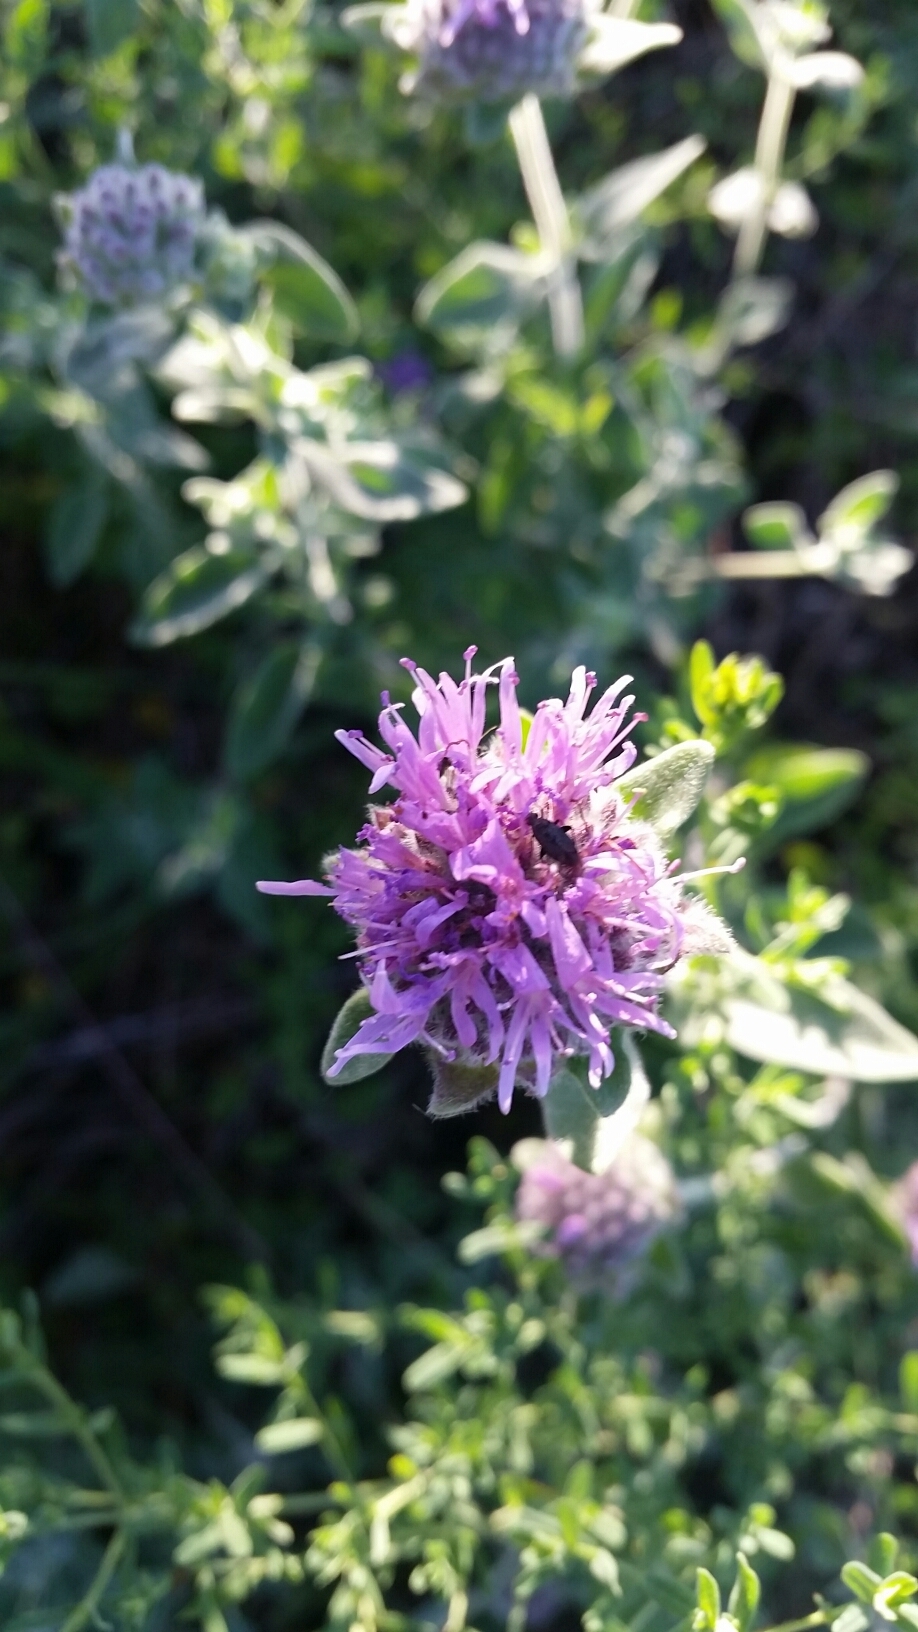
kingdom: Plantae
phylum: Tracheophyta
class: Magnoliopsida
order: Lamiales
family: Lamiaceae
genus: Monardella
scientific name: Monardella odoratissima
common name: Pacific monardella
